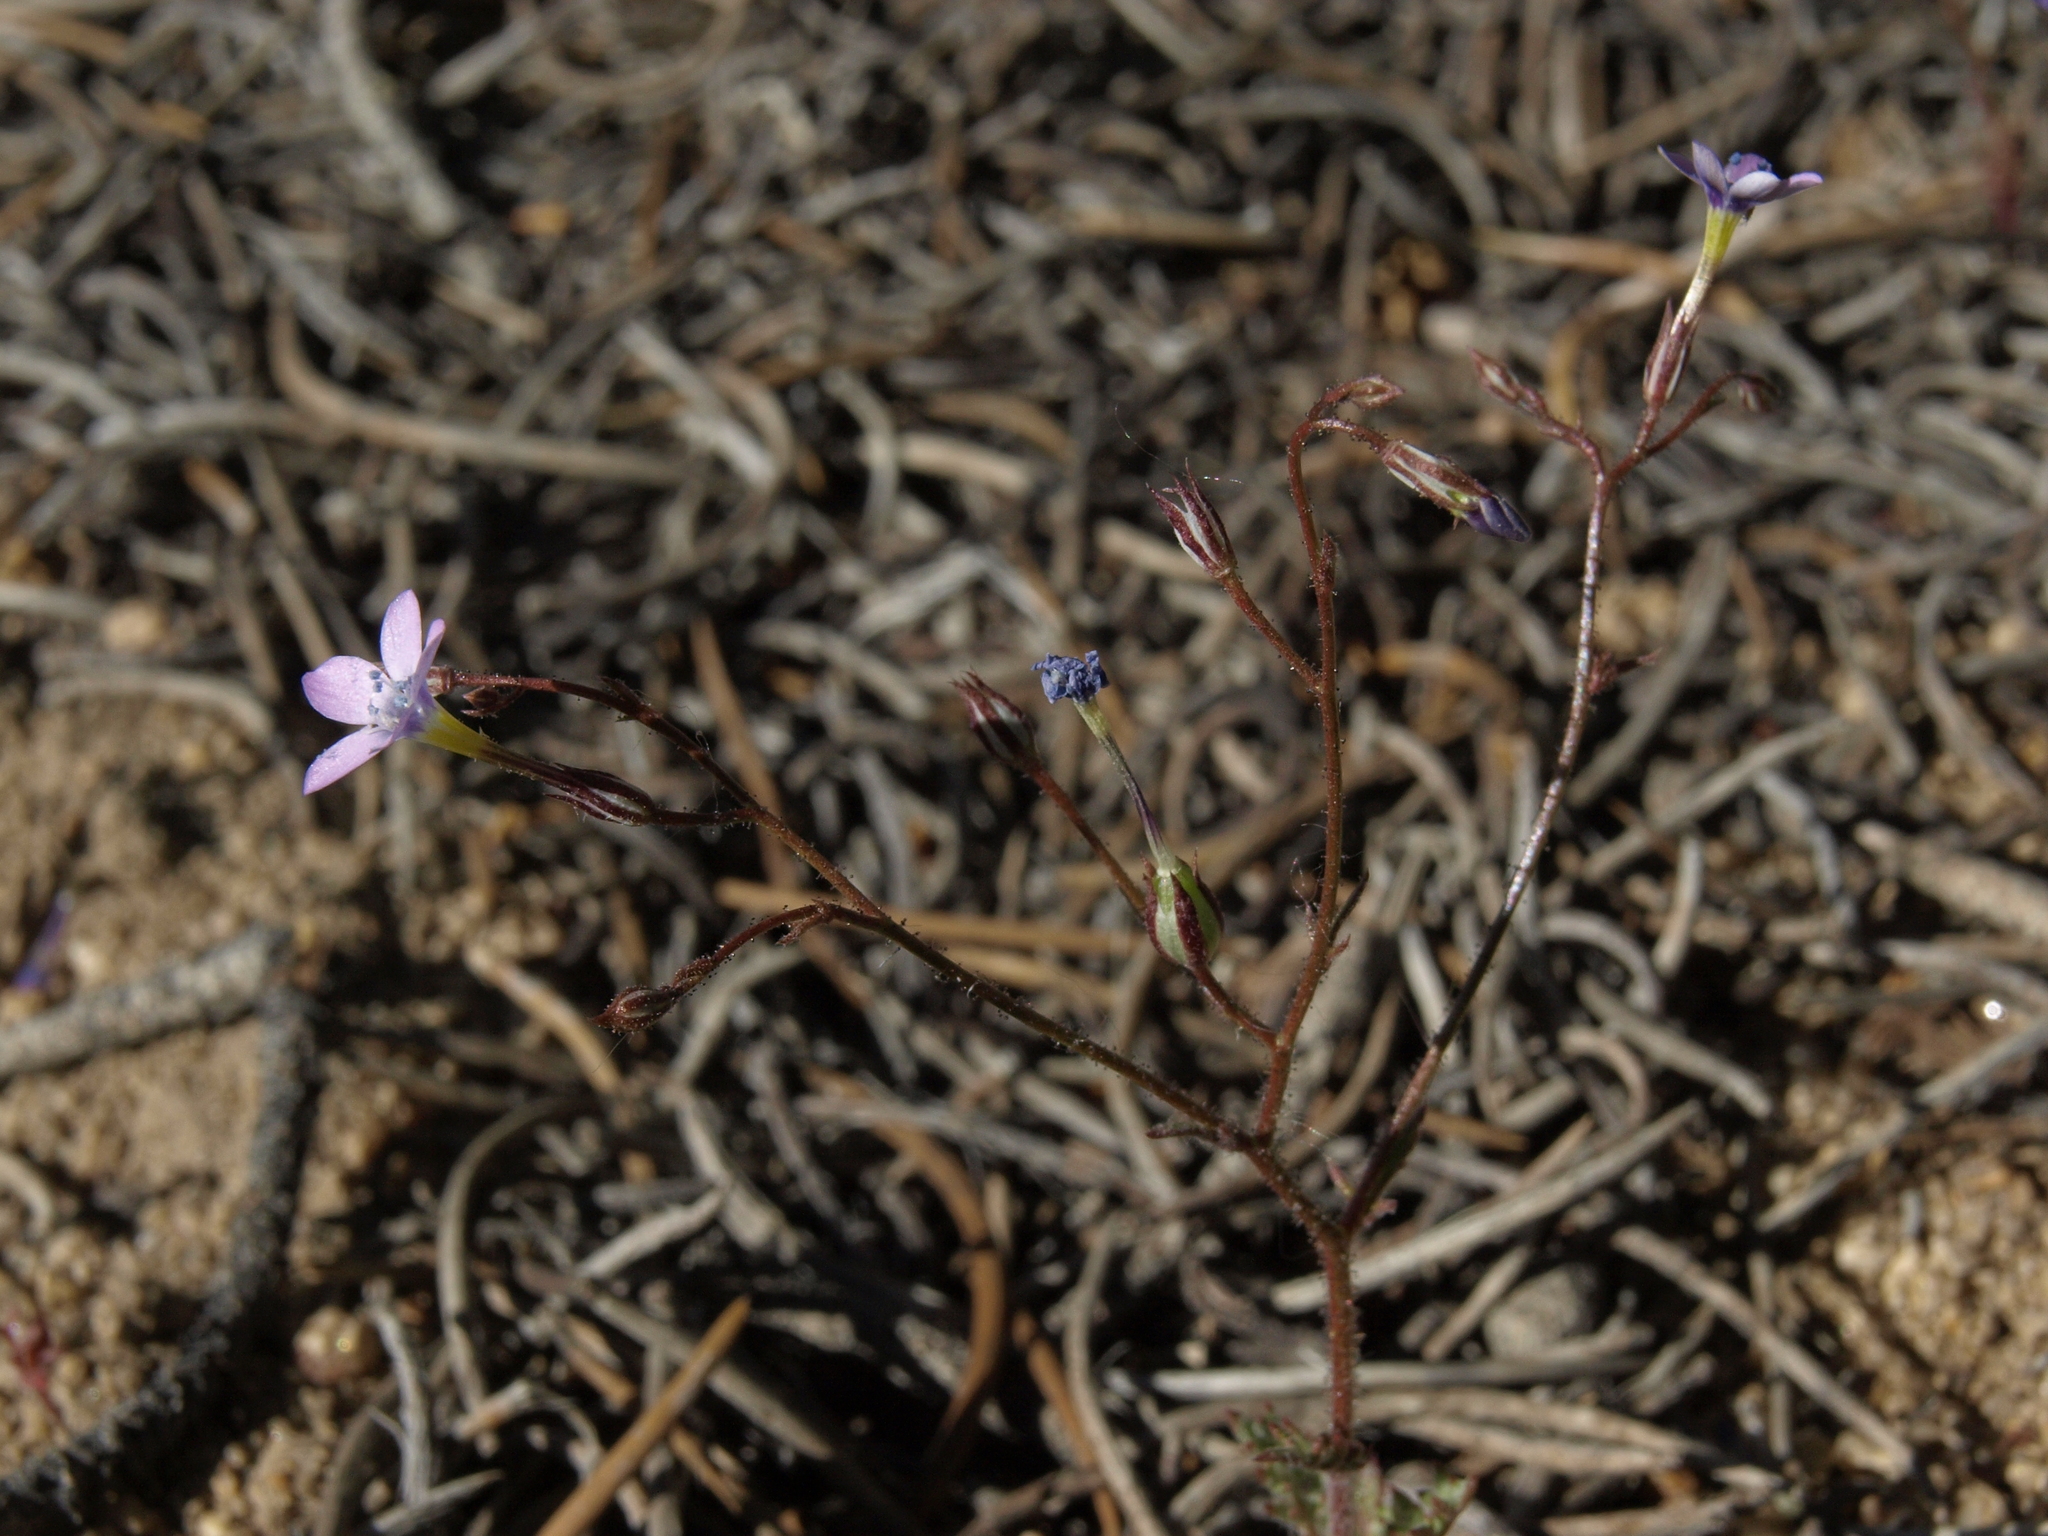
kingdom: Plantae
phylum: Tracheophyta
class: Magnoliopsida
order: Ericales
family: Polemoniaceae
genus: Gilia
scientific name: Gilia ophthalmoides
